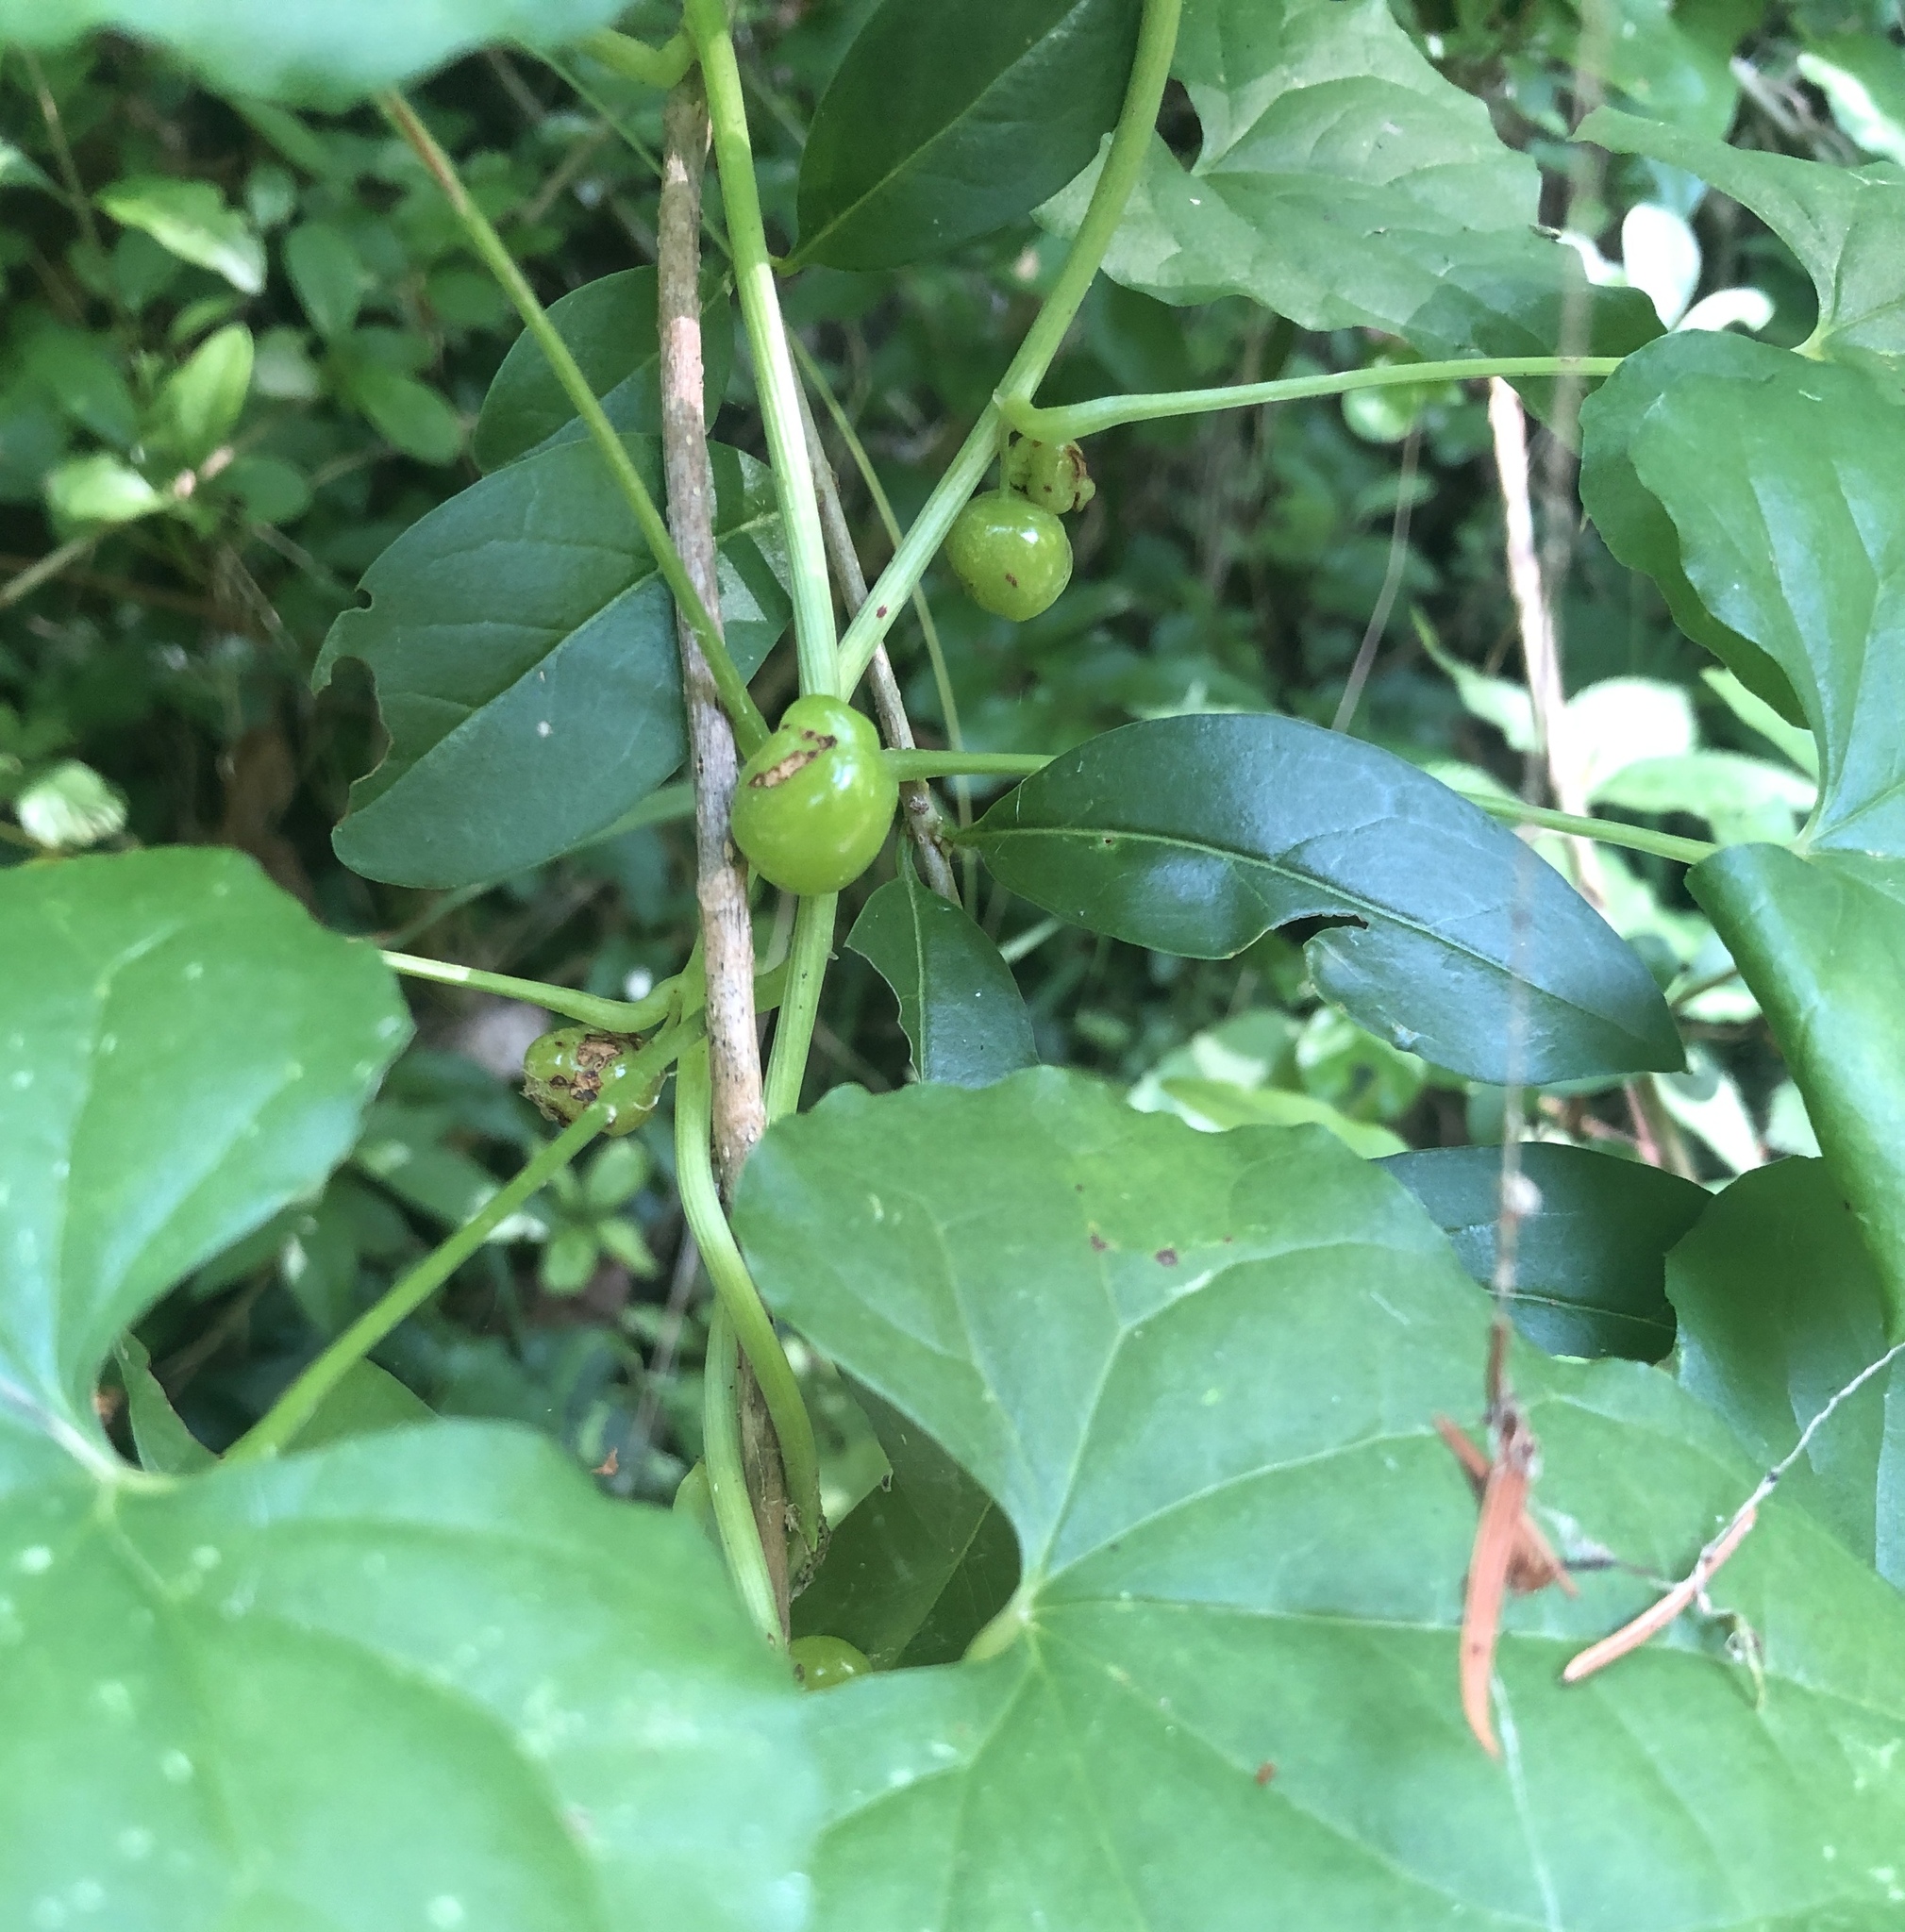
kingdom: Plantae
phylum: Tracheophyta
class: Liliopsida
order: Dioscoreales
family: Dioscoreaceae
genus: Dioscorea
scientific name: Dioscorea communis
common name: Black-bindweed
